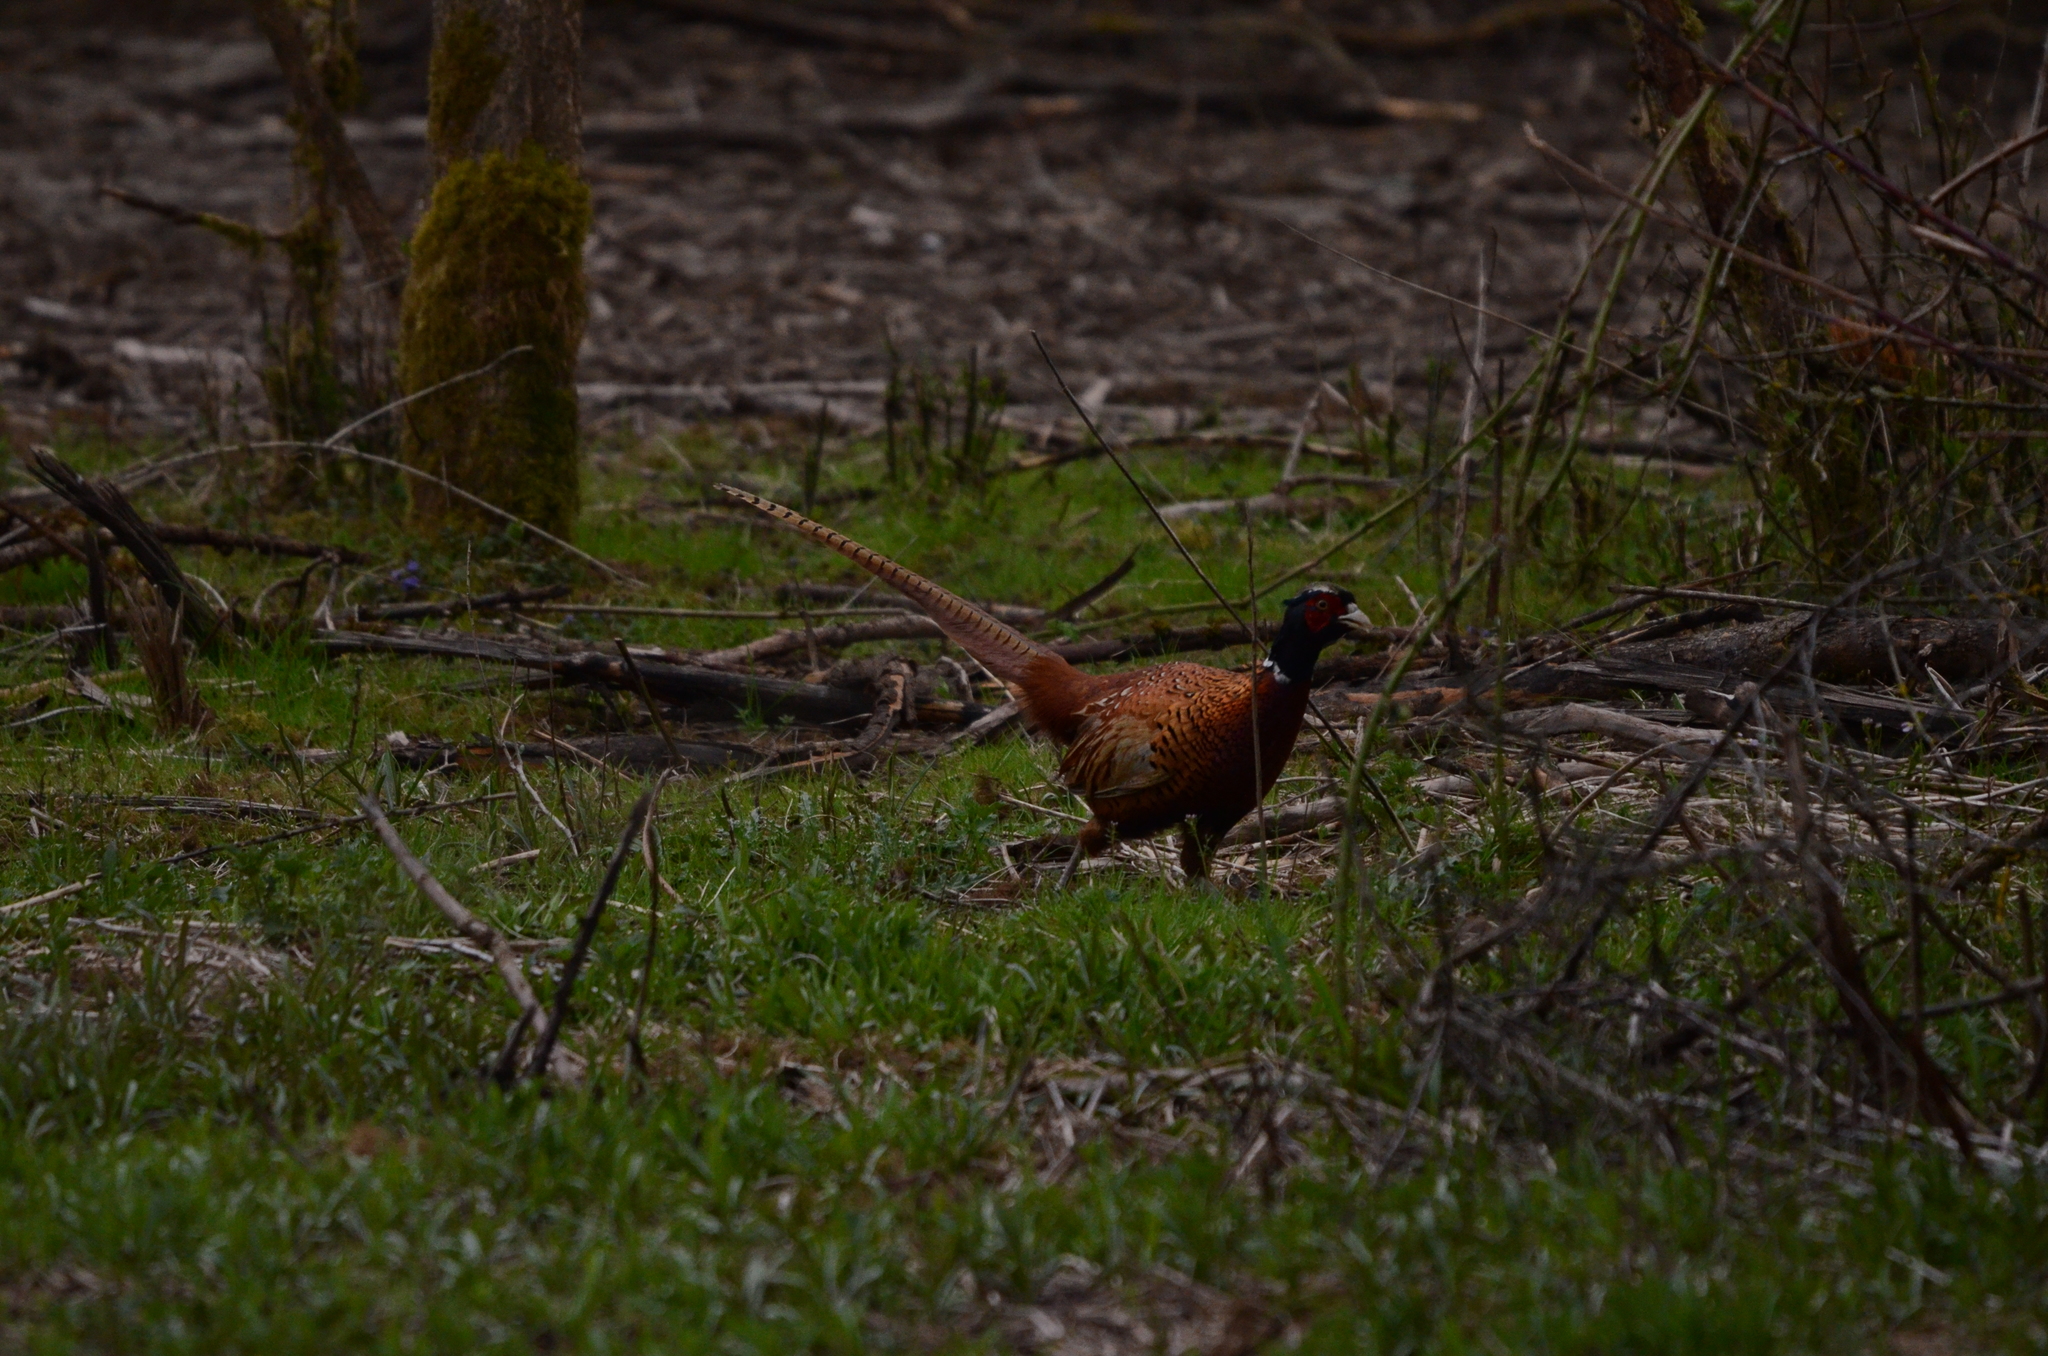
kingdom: Animalia
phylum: Chordata
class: Aves
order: Galliformes
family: Phasianidae
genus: Phasianus
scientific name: Phasianus colchicus
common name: Common pheasant
